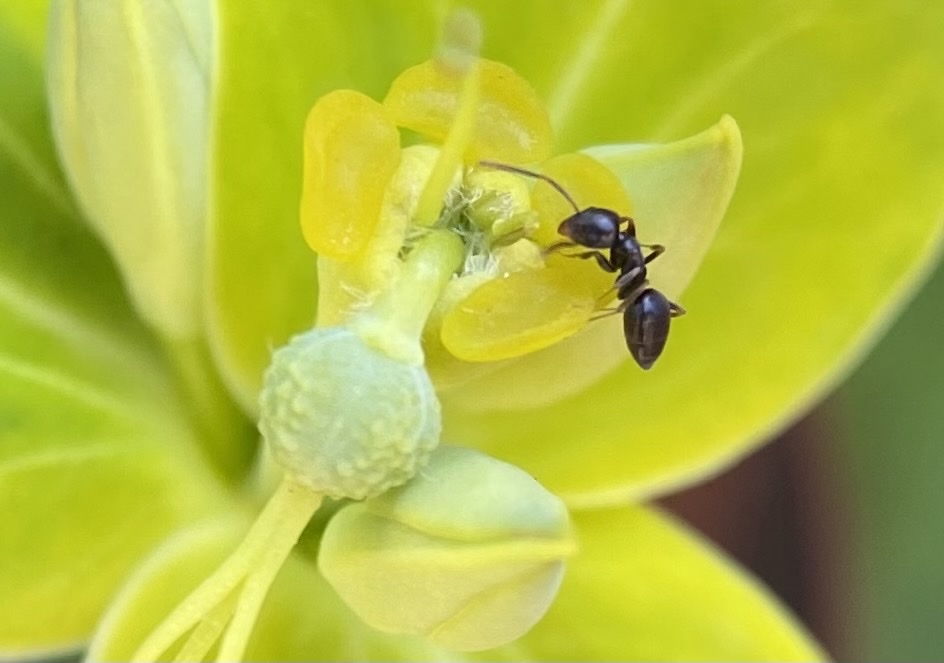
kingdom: Animalia
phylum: Arthropoda
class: Insecta
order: Hymenoptera
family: Formicidae
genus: Tapinoma
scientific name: Tapinoma sessile
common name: Odorous house ant
